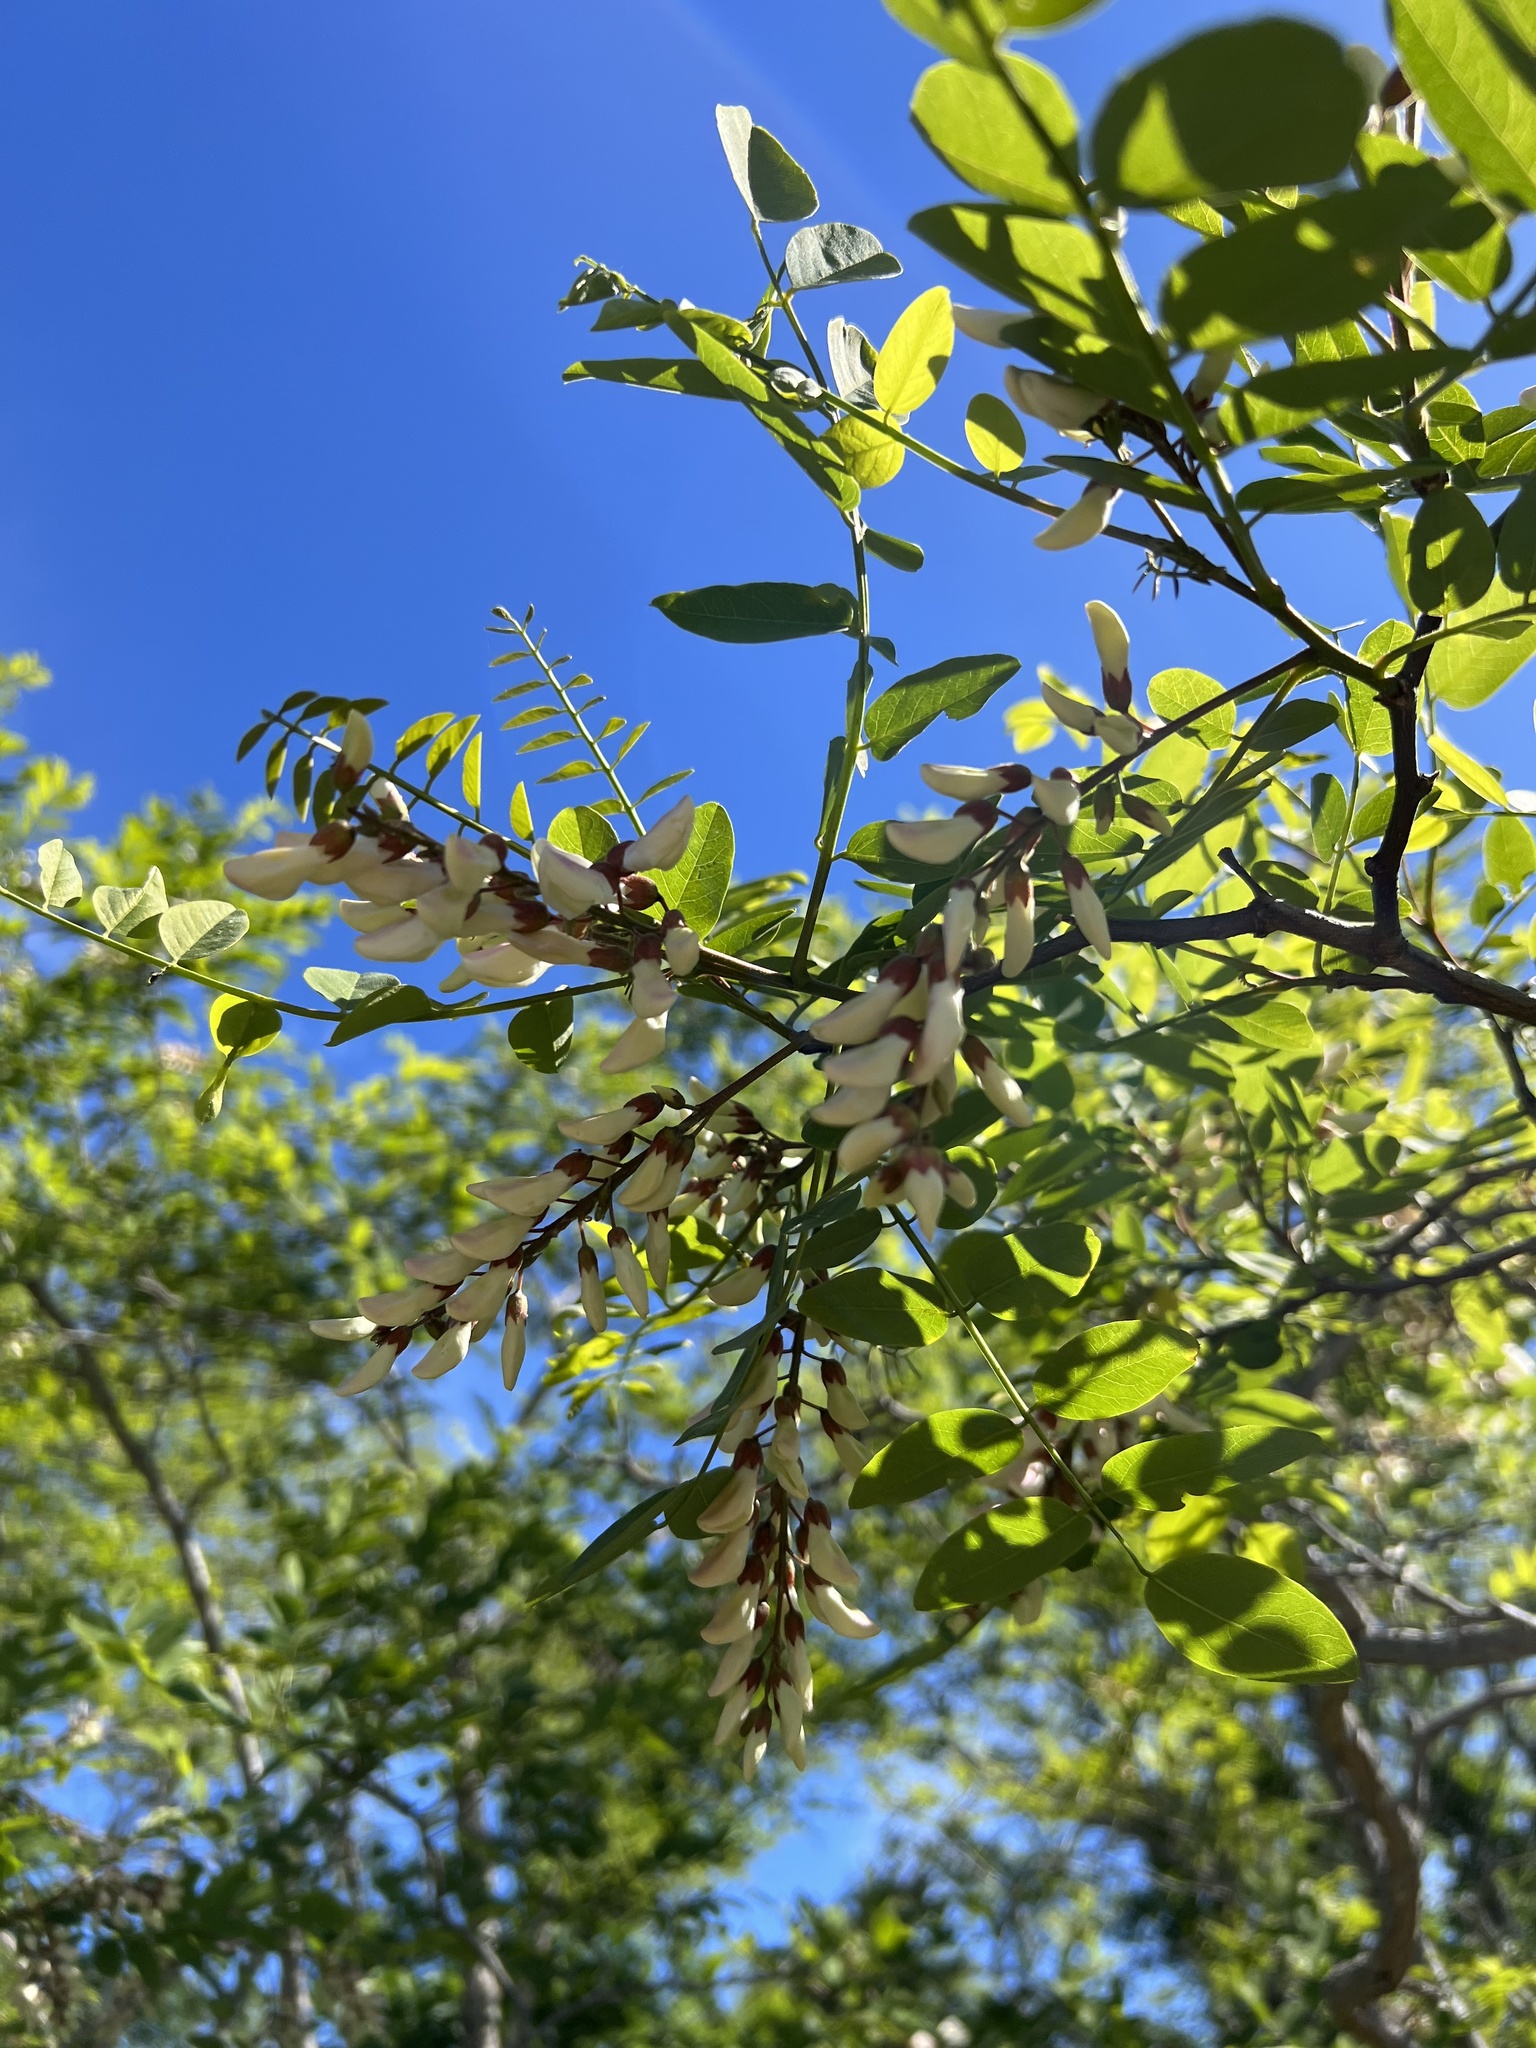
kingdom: Plantae
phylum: Tracheophyta
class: Magnoliopsida
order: Fabales
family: Fabaceae
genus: Robinia
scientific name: Robinia pseudoacacia
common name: Black locust
